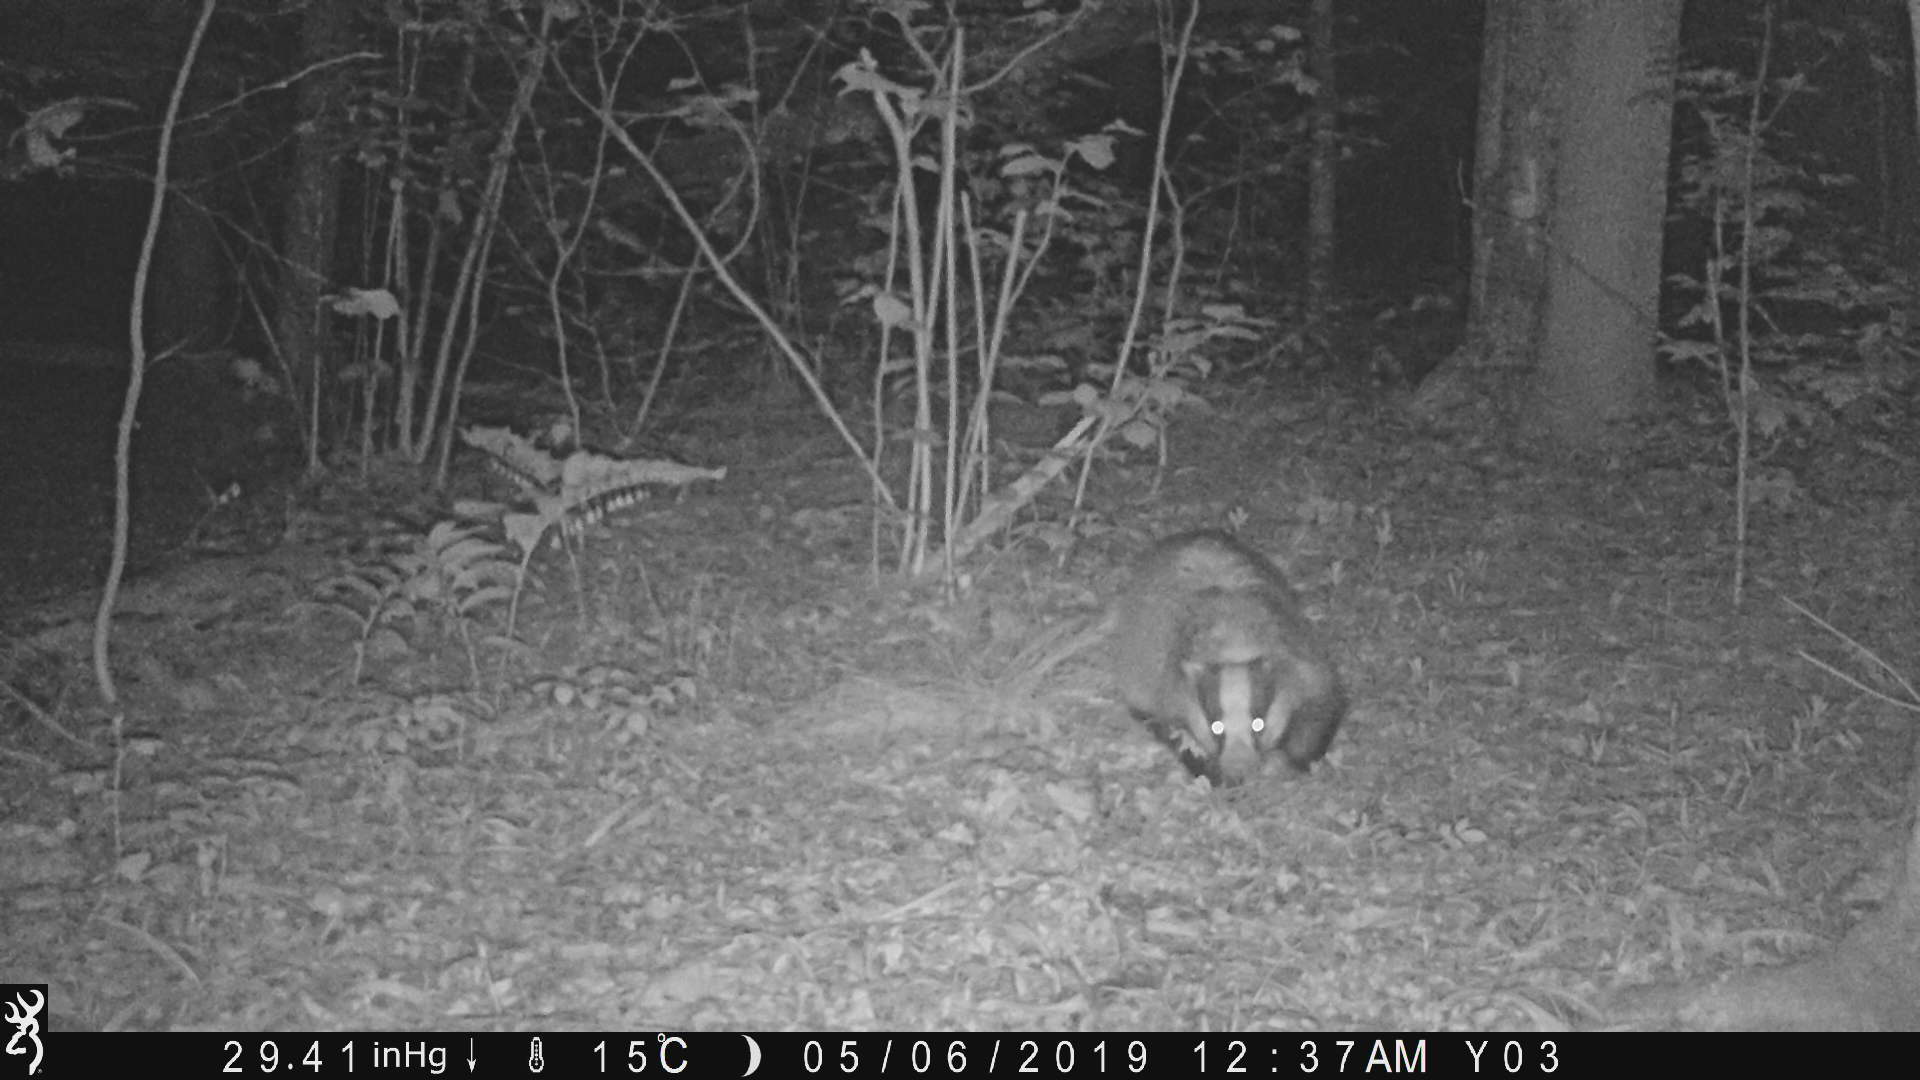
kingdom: Animalia
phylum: Chordata
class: Mammalia
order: Carnivora
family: Mustelidae
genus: Meles
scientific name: Meles meles
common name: Eurasian badger
